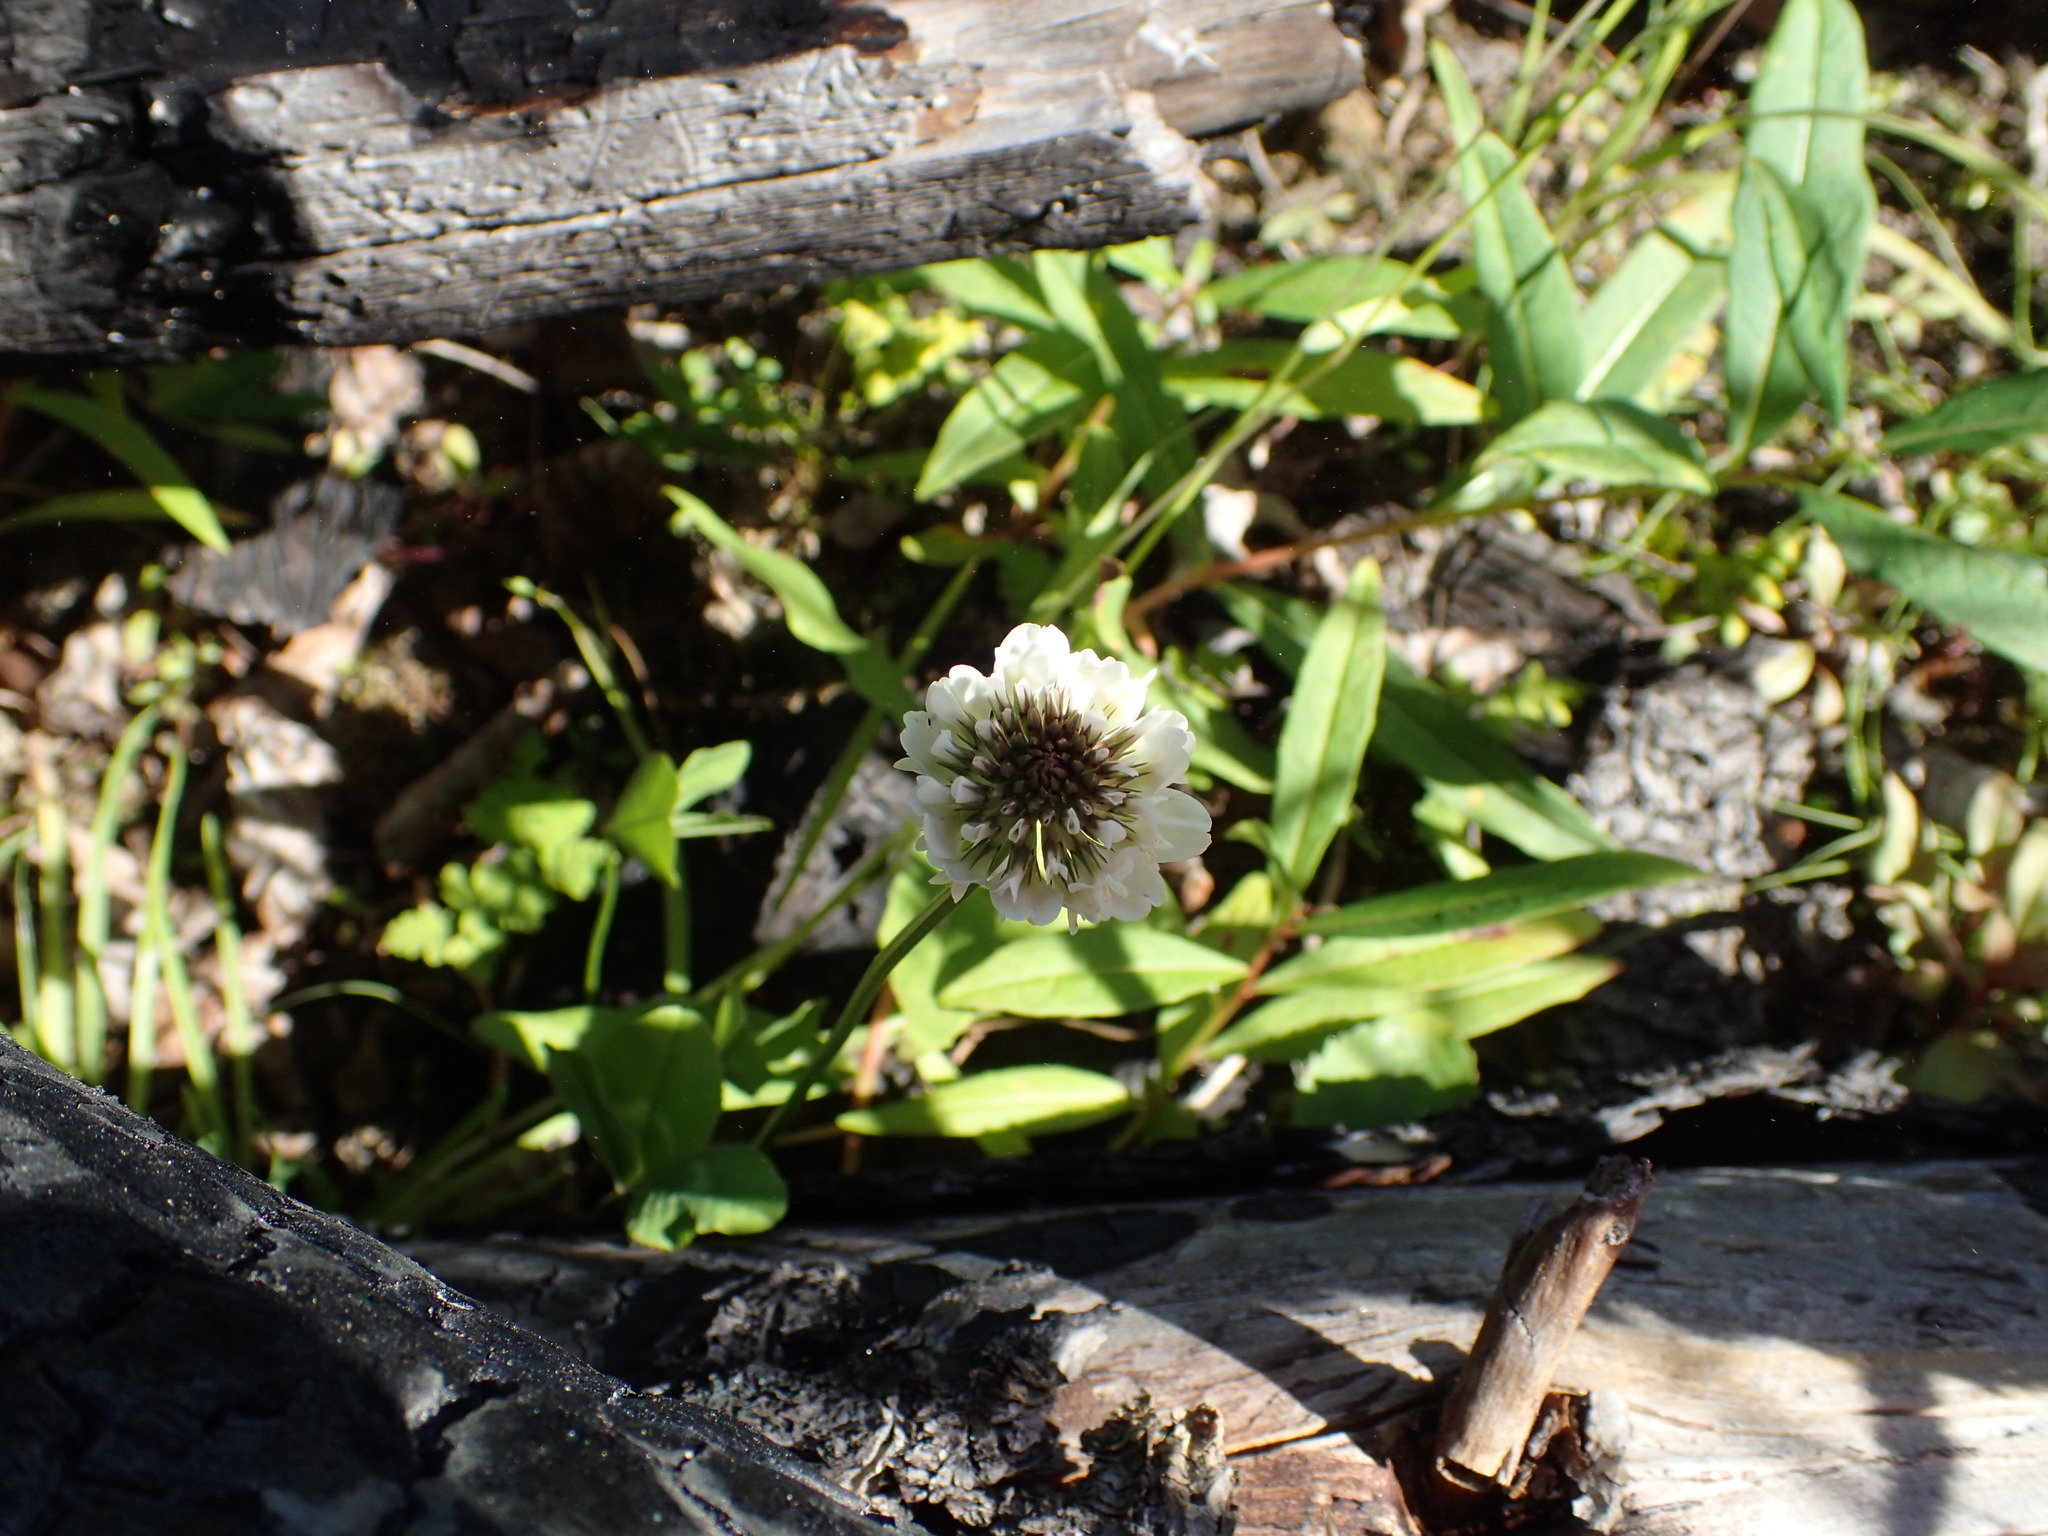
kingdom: Plantae
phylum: Tracheophyta
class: Magnoliopsida
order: Fabales
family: Fabaceae
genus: Trifolium
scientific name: Trifolium repens
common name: White clover
